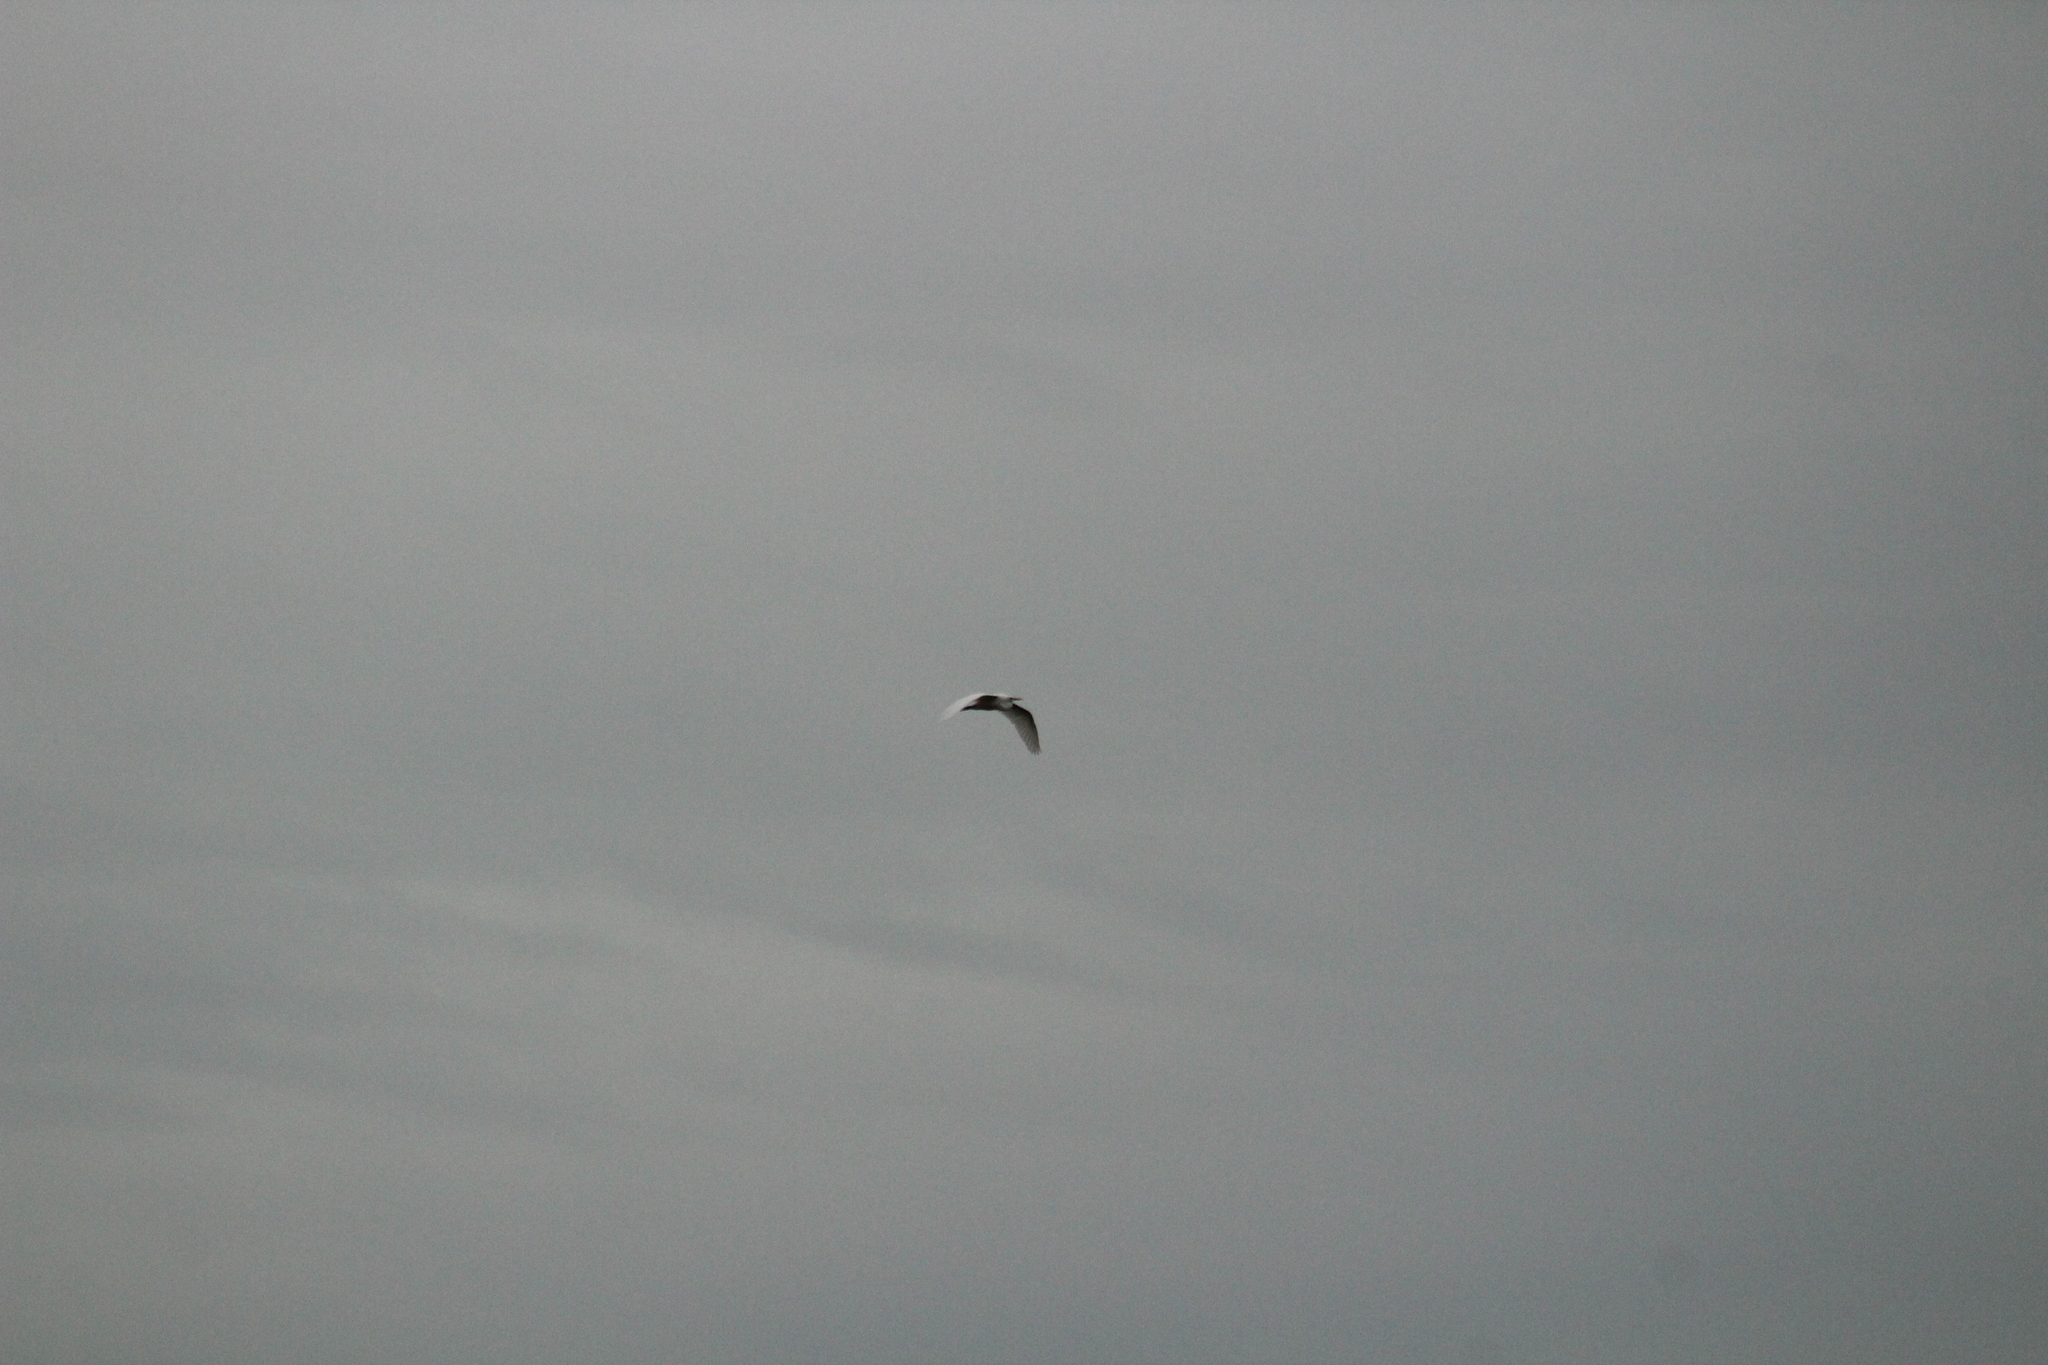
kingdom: Animalia
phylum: Chordata
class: Aves
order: Pelecaniformes
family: Ardeidae
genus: Ardea
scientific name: Ardea alba
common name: Great egret
